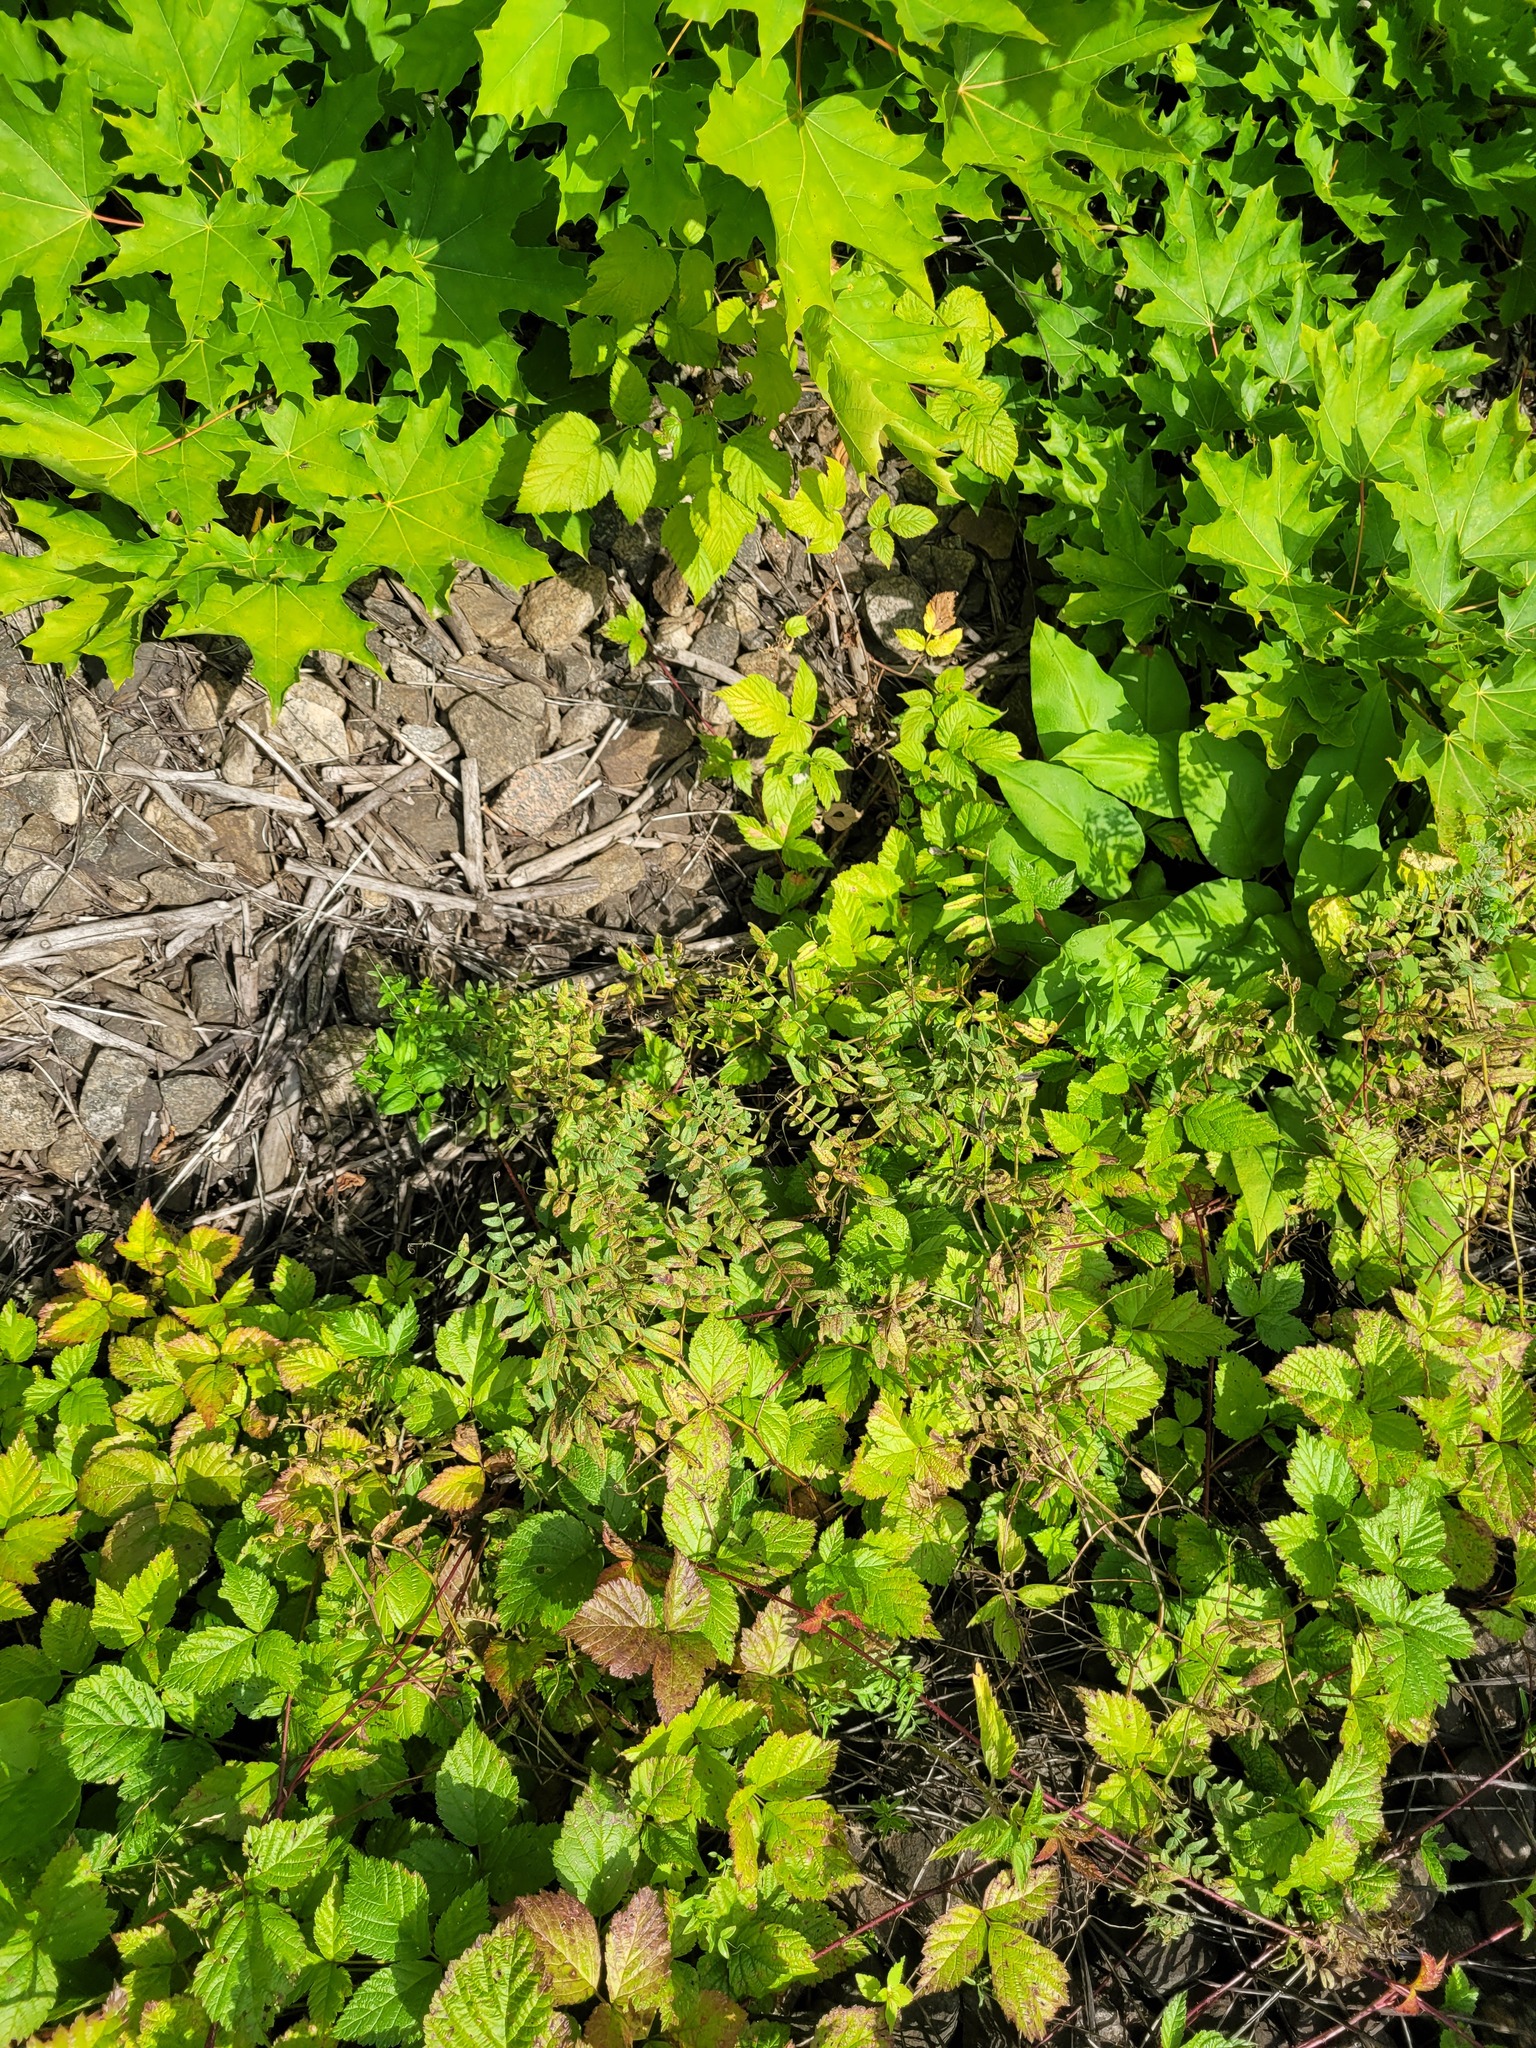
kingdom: Plantae
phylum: Tracheophyta
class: Magnoliopsida
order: Fabales
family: Fabaceae
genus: Vicia
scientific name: Vicia sepium
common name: Bush vetch
